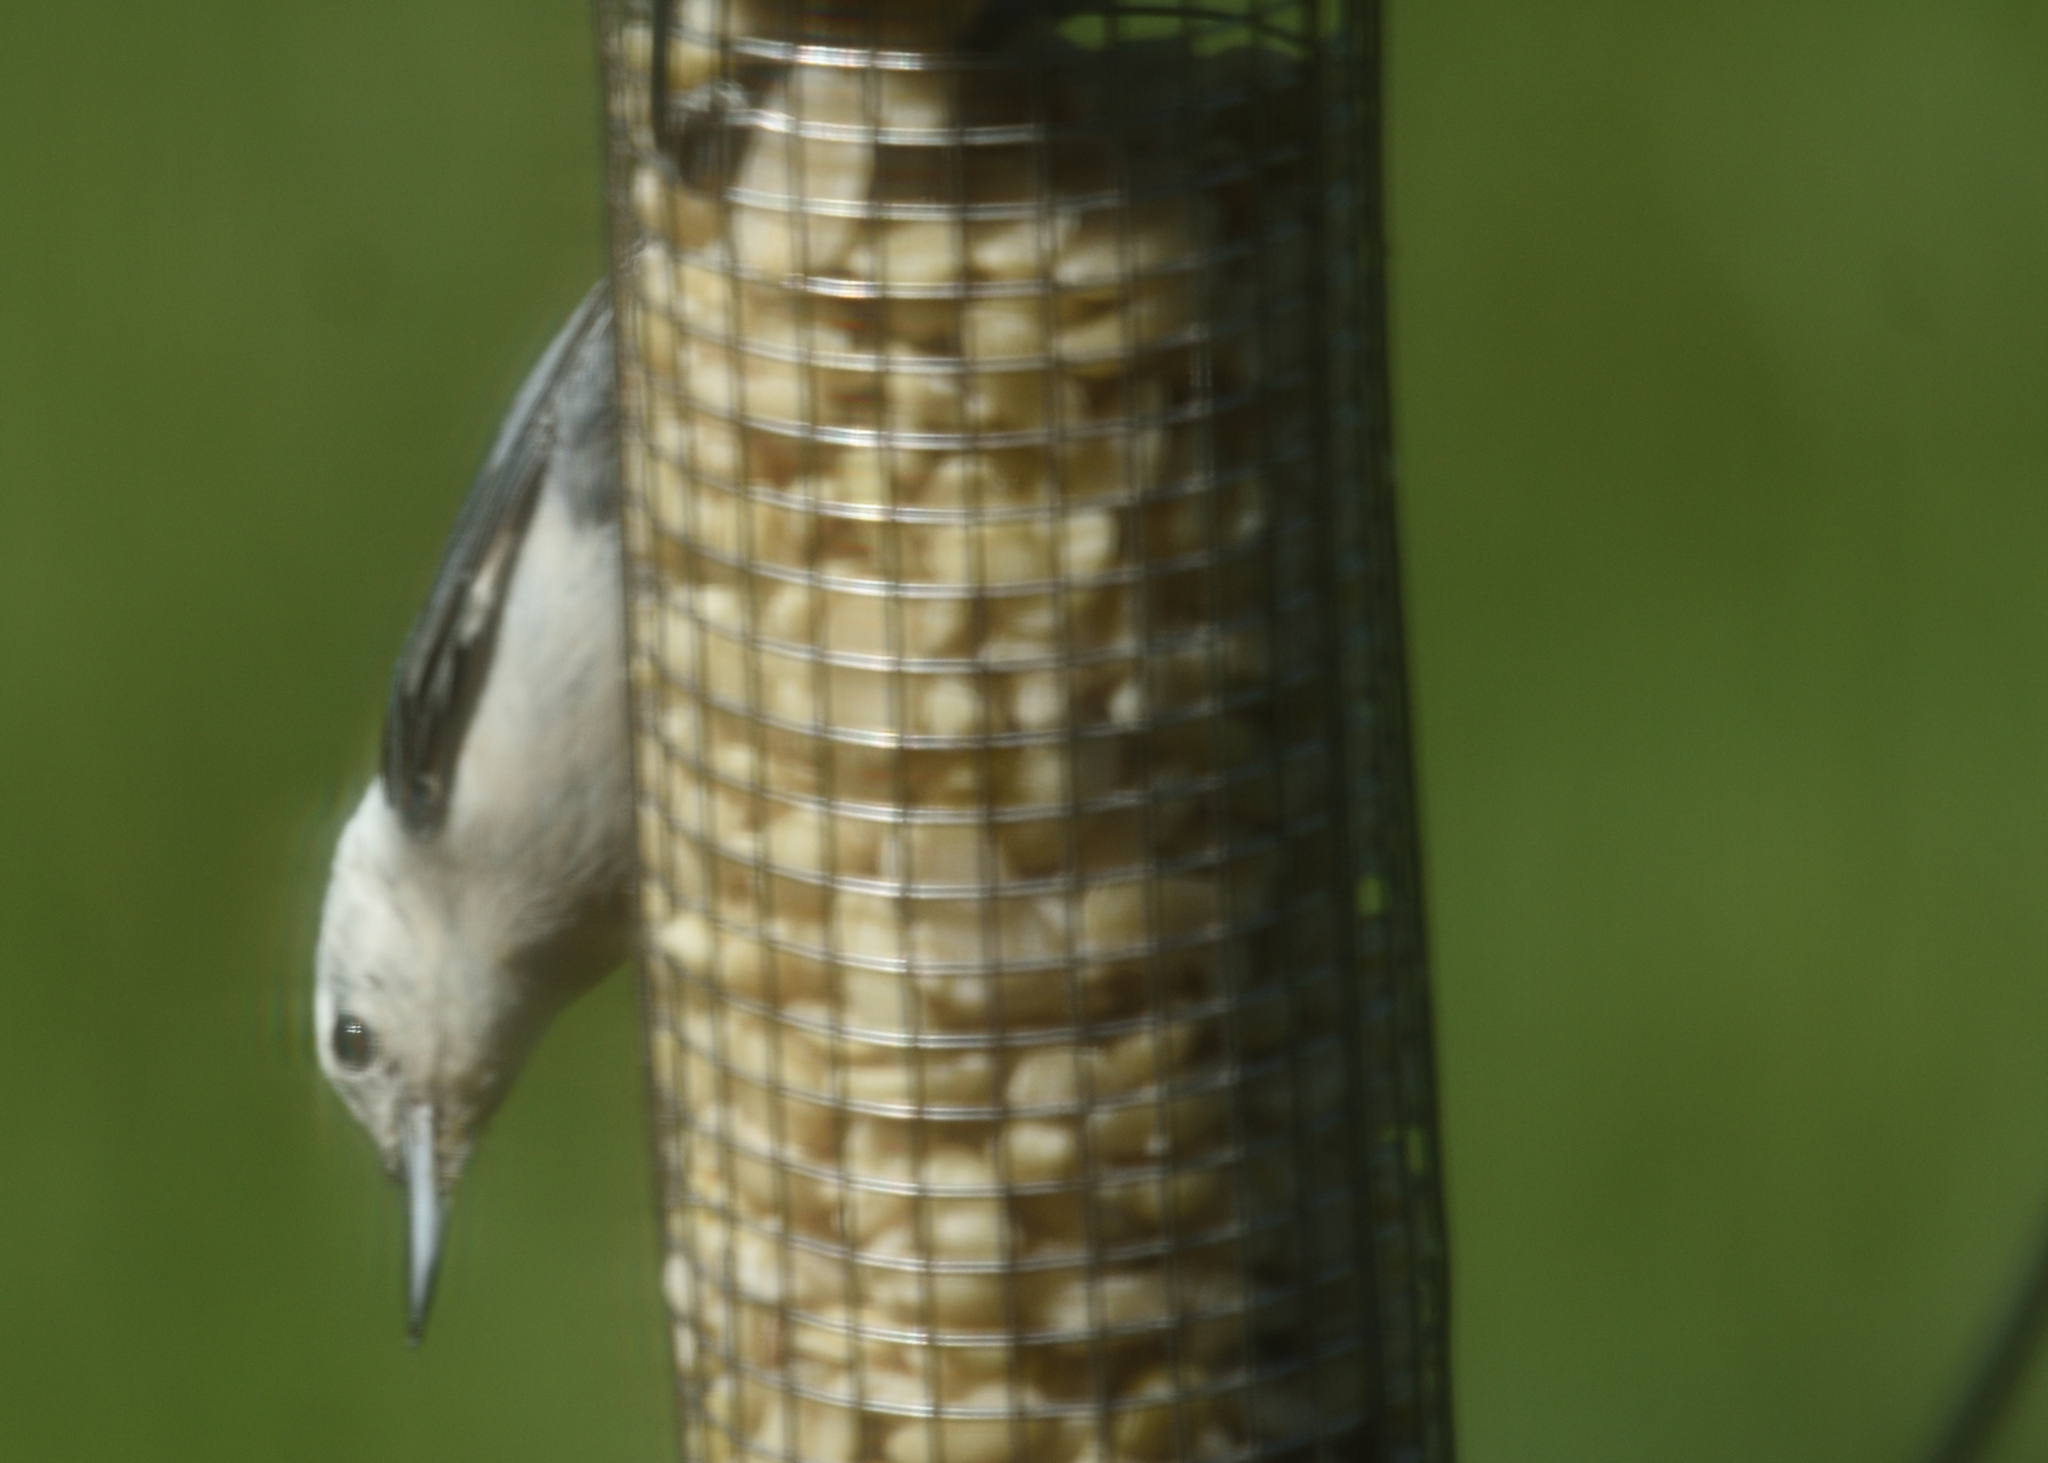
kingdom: Animalia
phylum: Chordata
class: Aves
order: Passeriformes
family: Sittidae
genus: Sitta
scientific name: Sitta carolinensis
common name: White-breasted nuthatch
